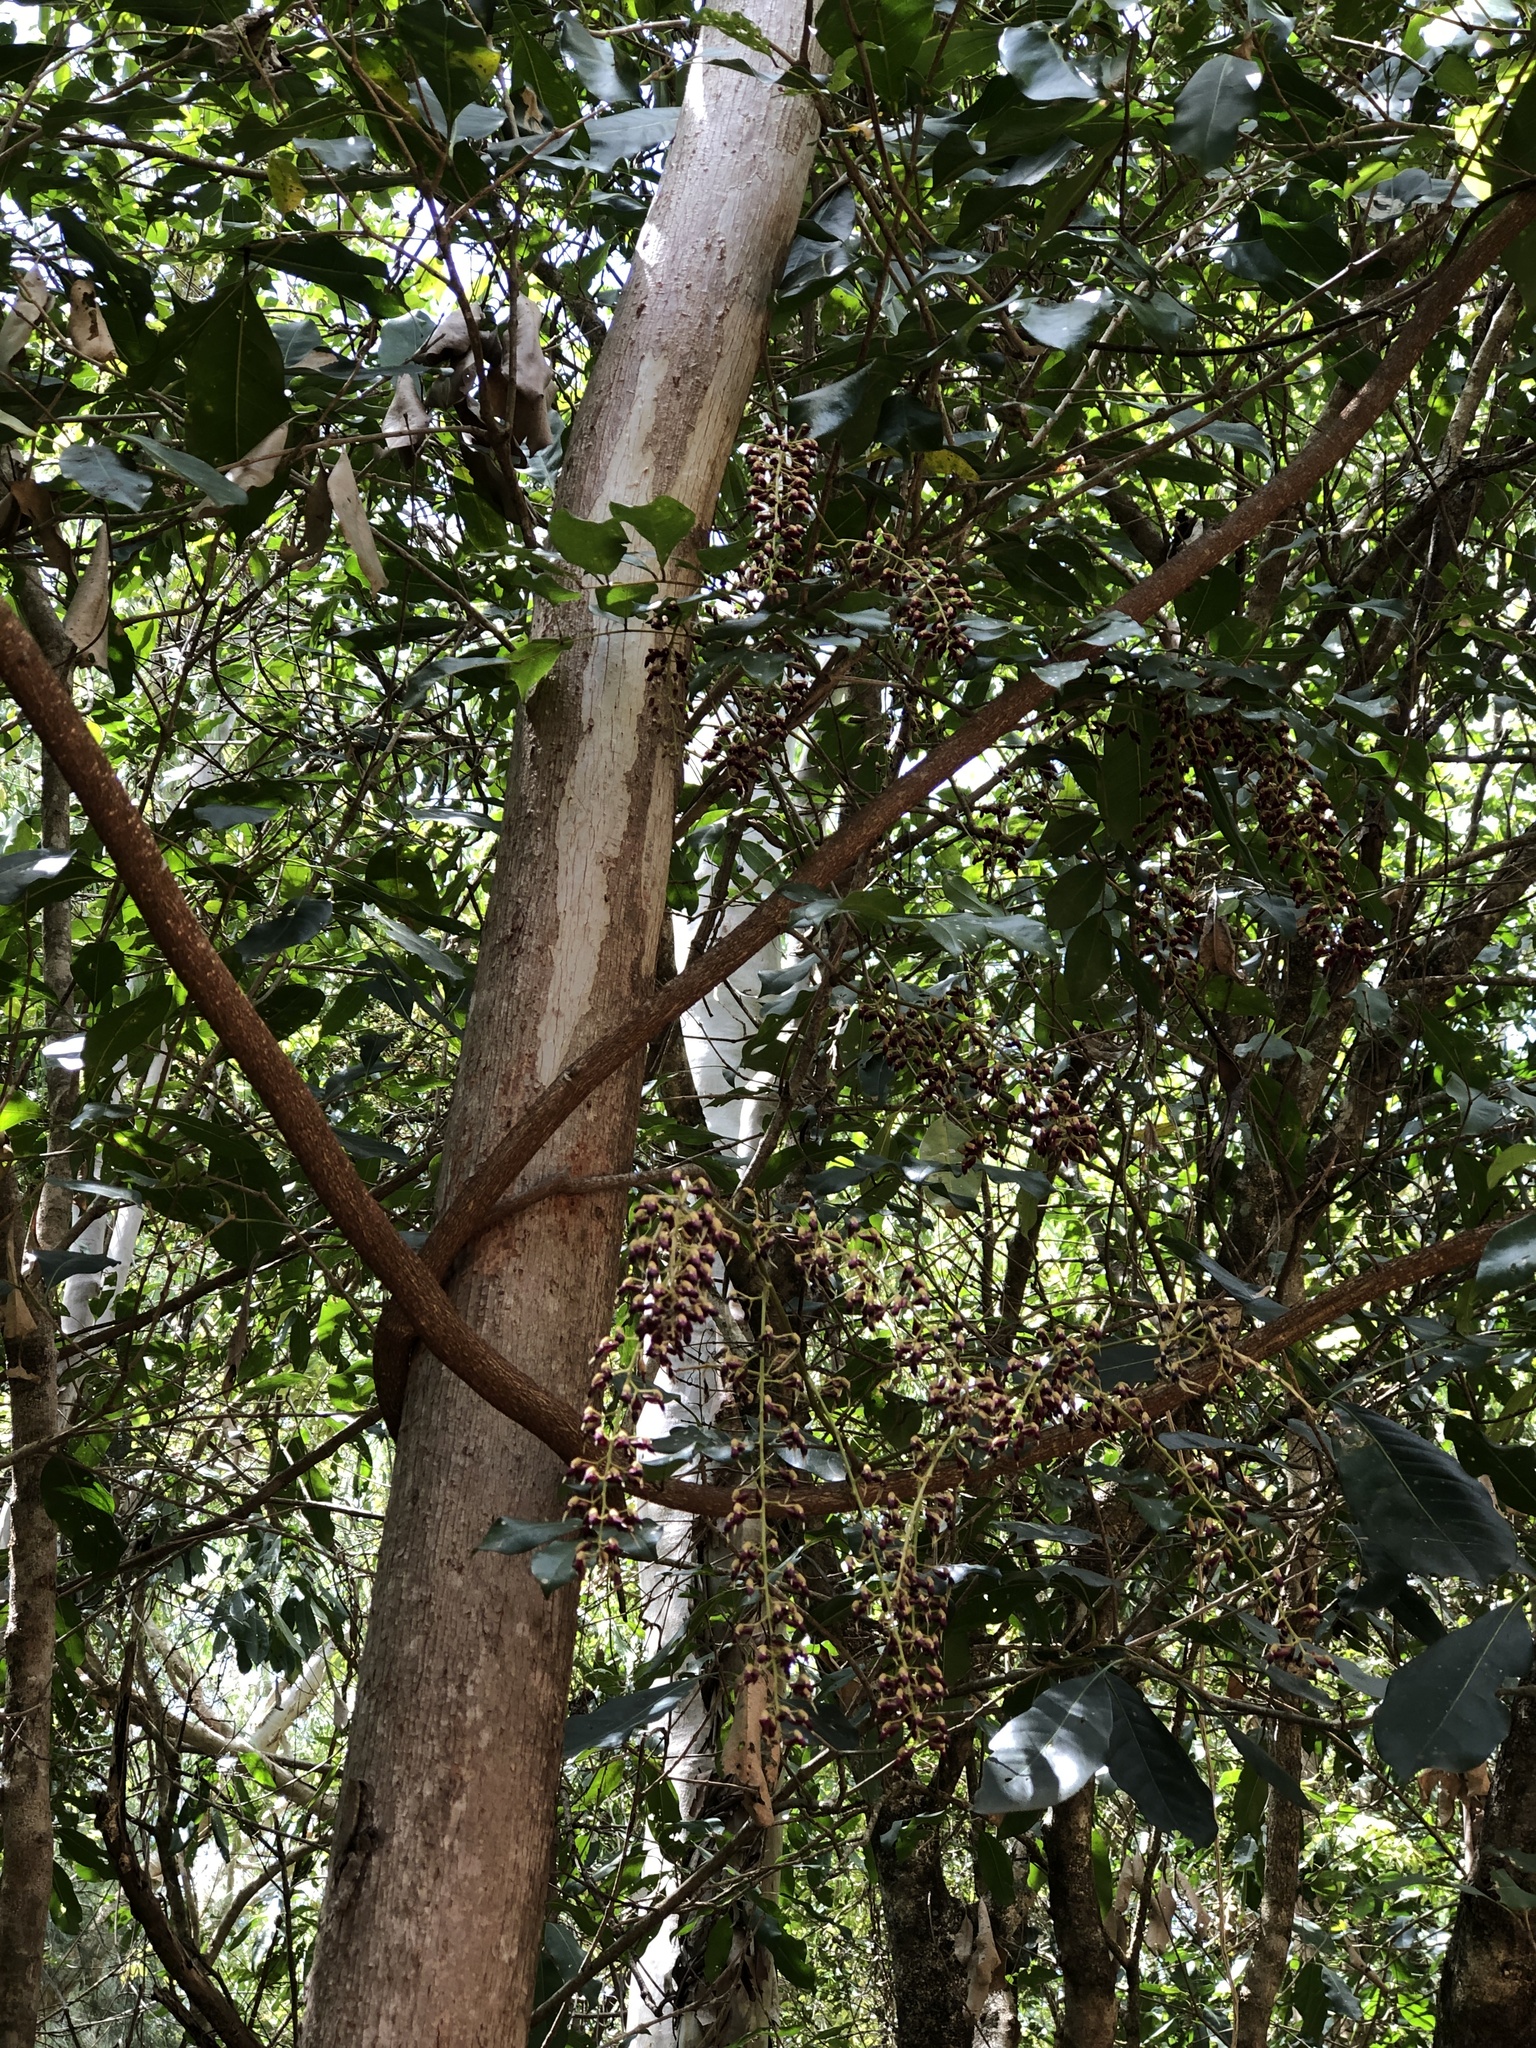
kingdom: Plantae
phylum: Tracheophyta
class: Magnoliopsida
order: Fabales
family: Fabaceae
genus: Austrosteenisia
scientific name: Austrosteenisia blackii
